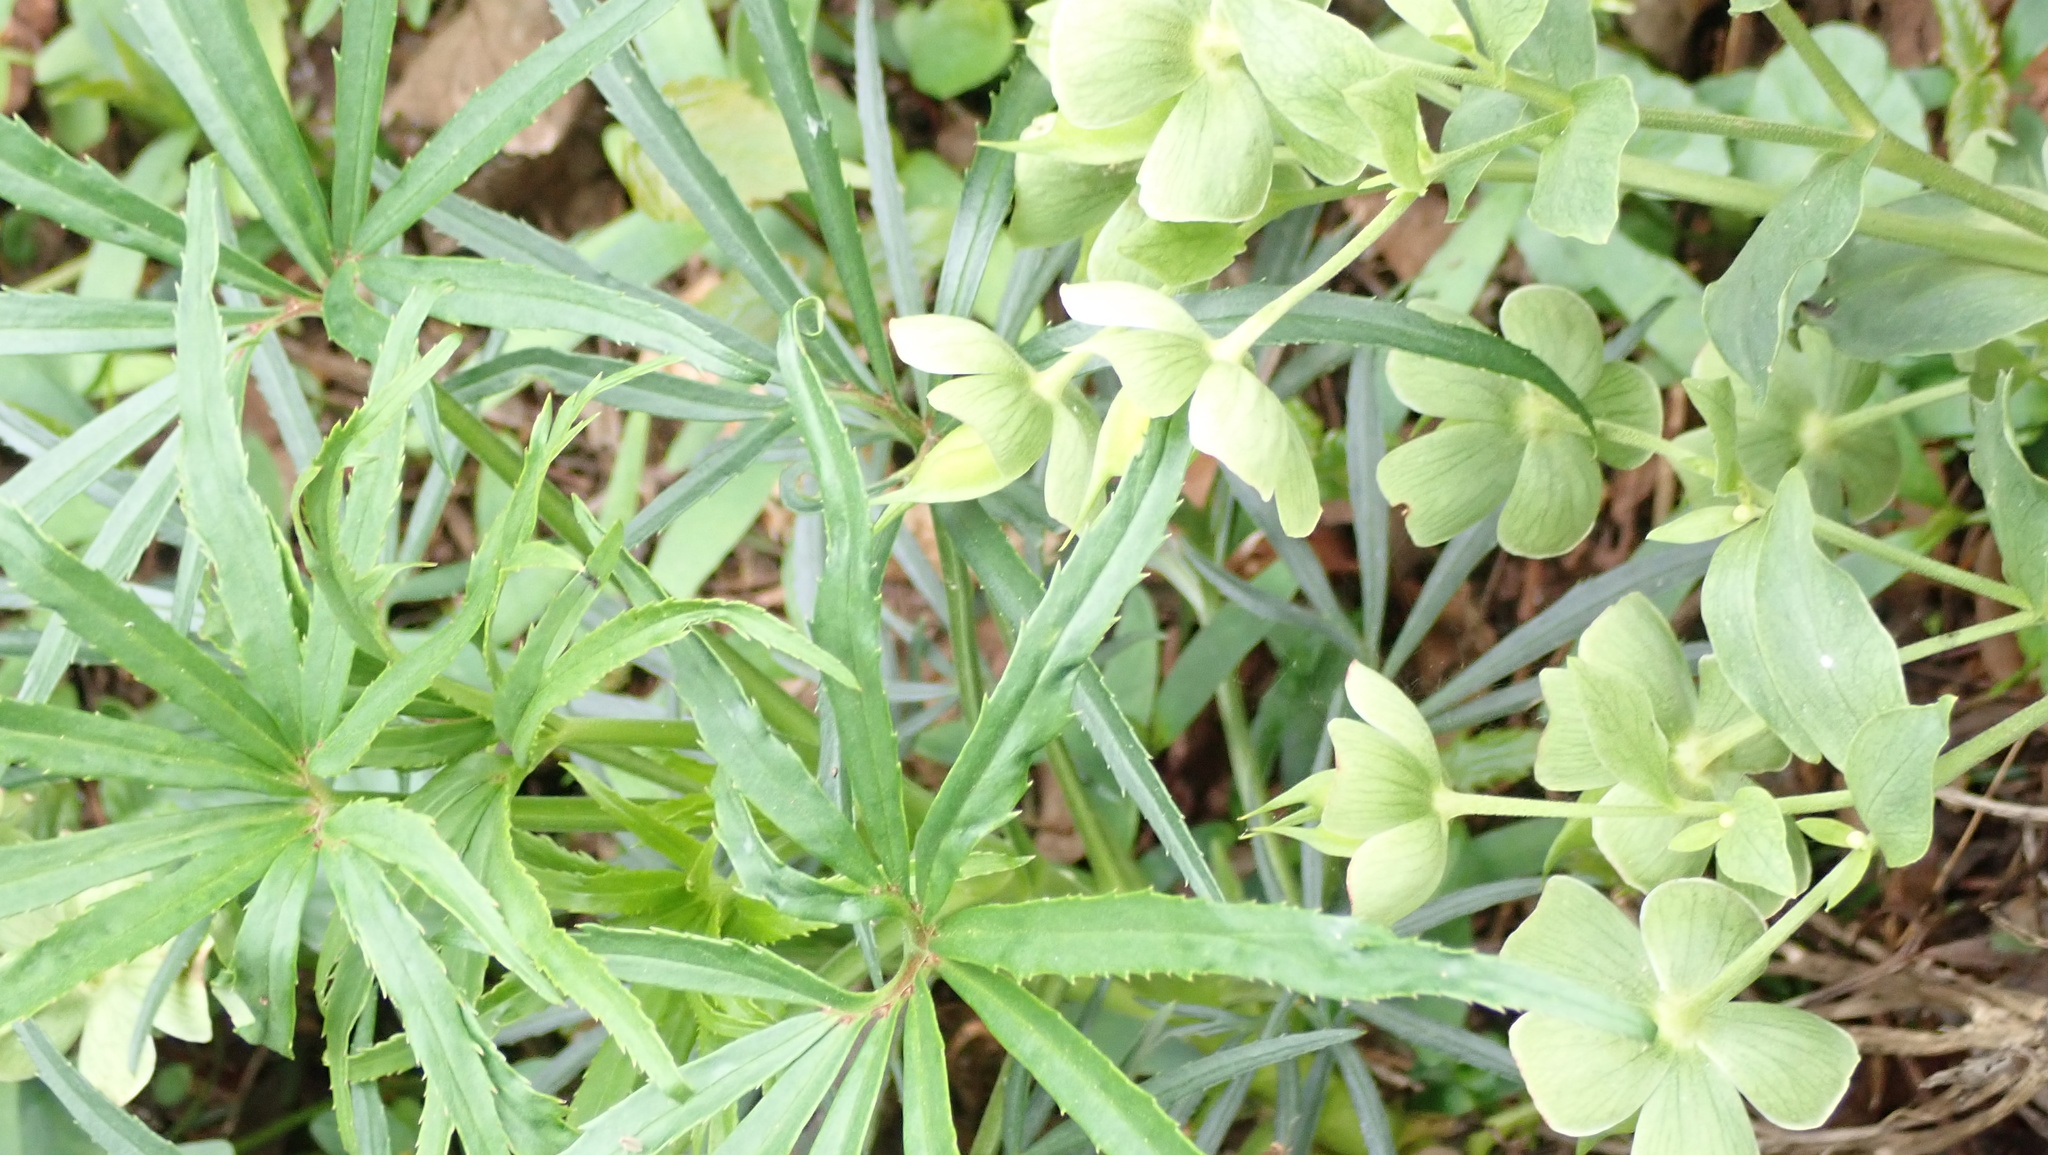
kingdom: Plantae
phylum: Tracheophyta
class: Magnoliopsida
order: Ranunculales
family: Ranunculaceae
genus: Helleborus
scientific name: Helleborus foetidus
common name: Stinking hellebore
